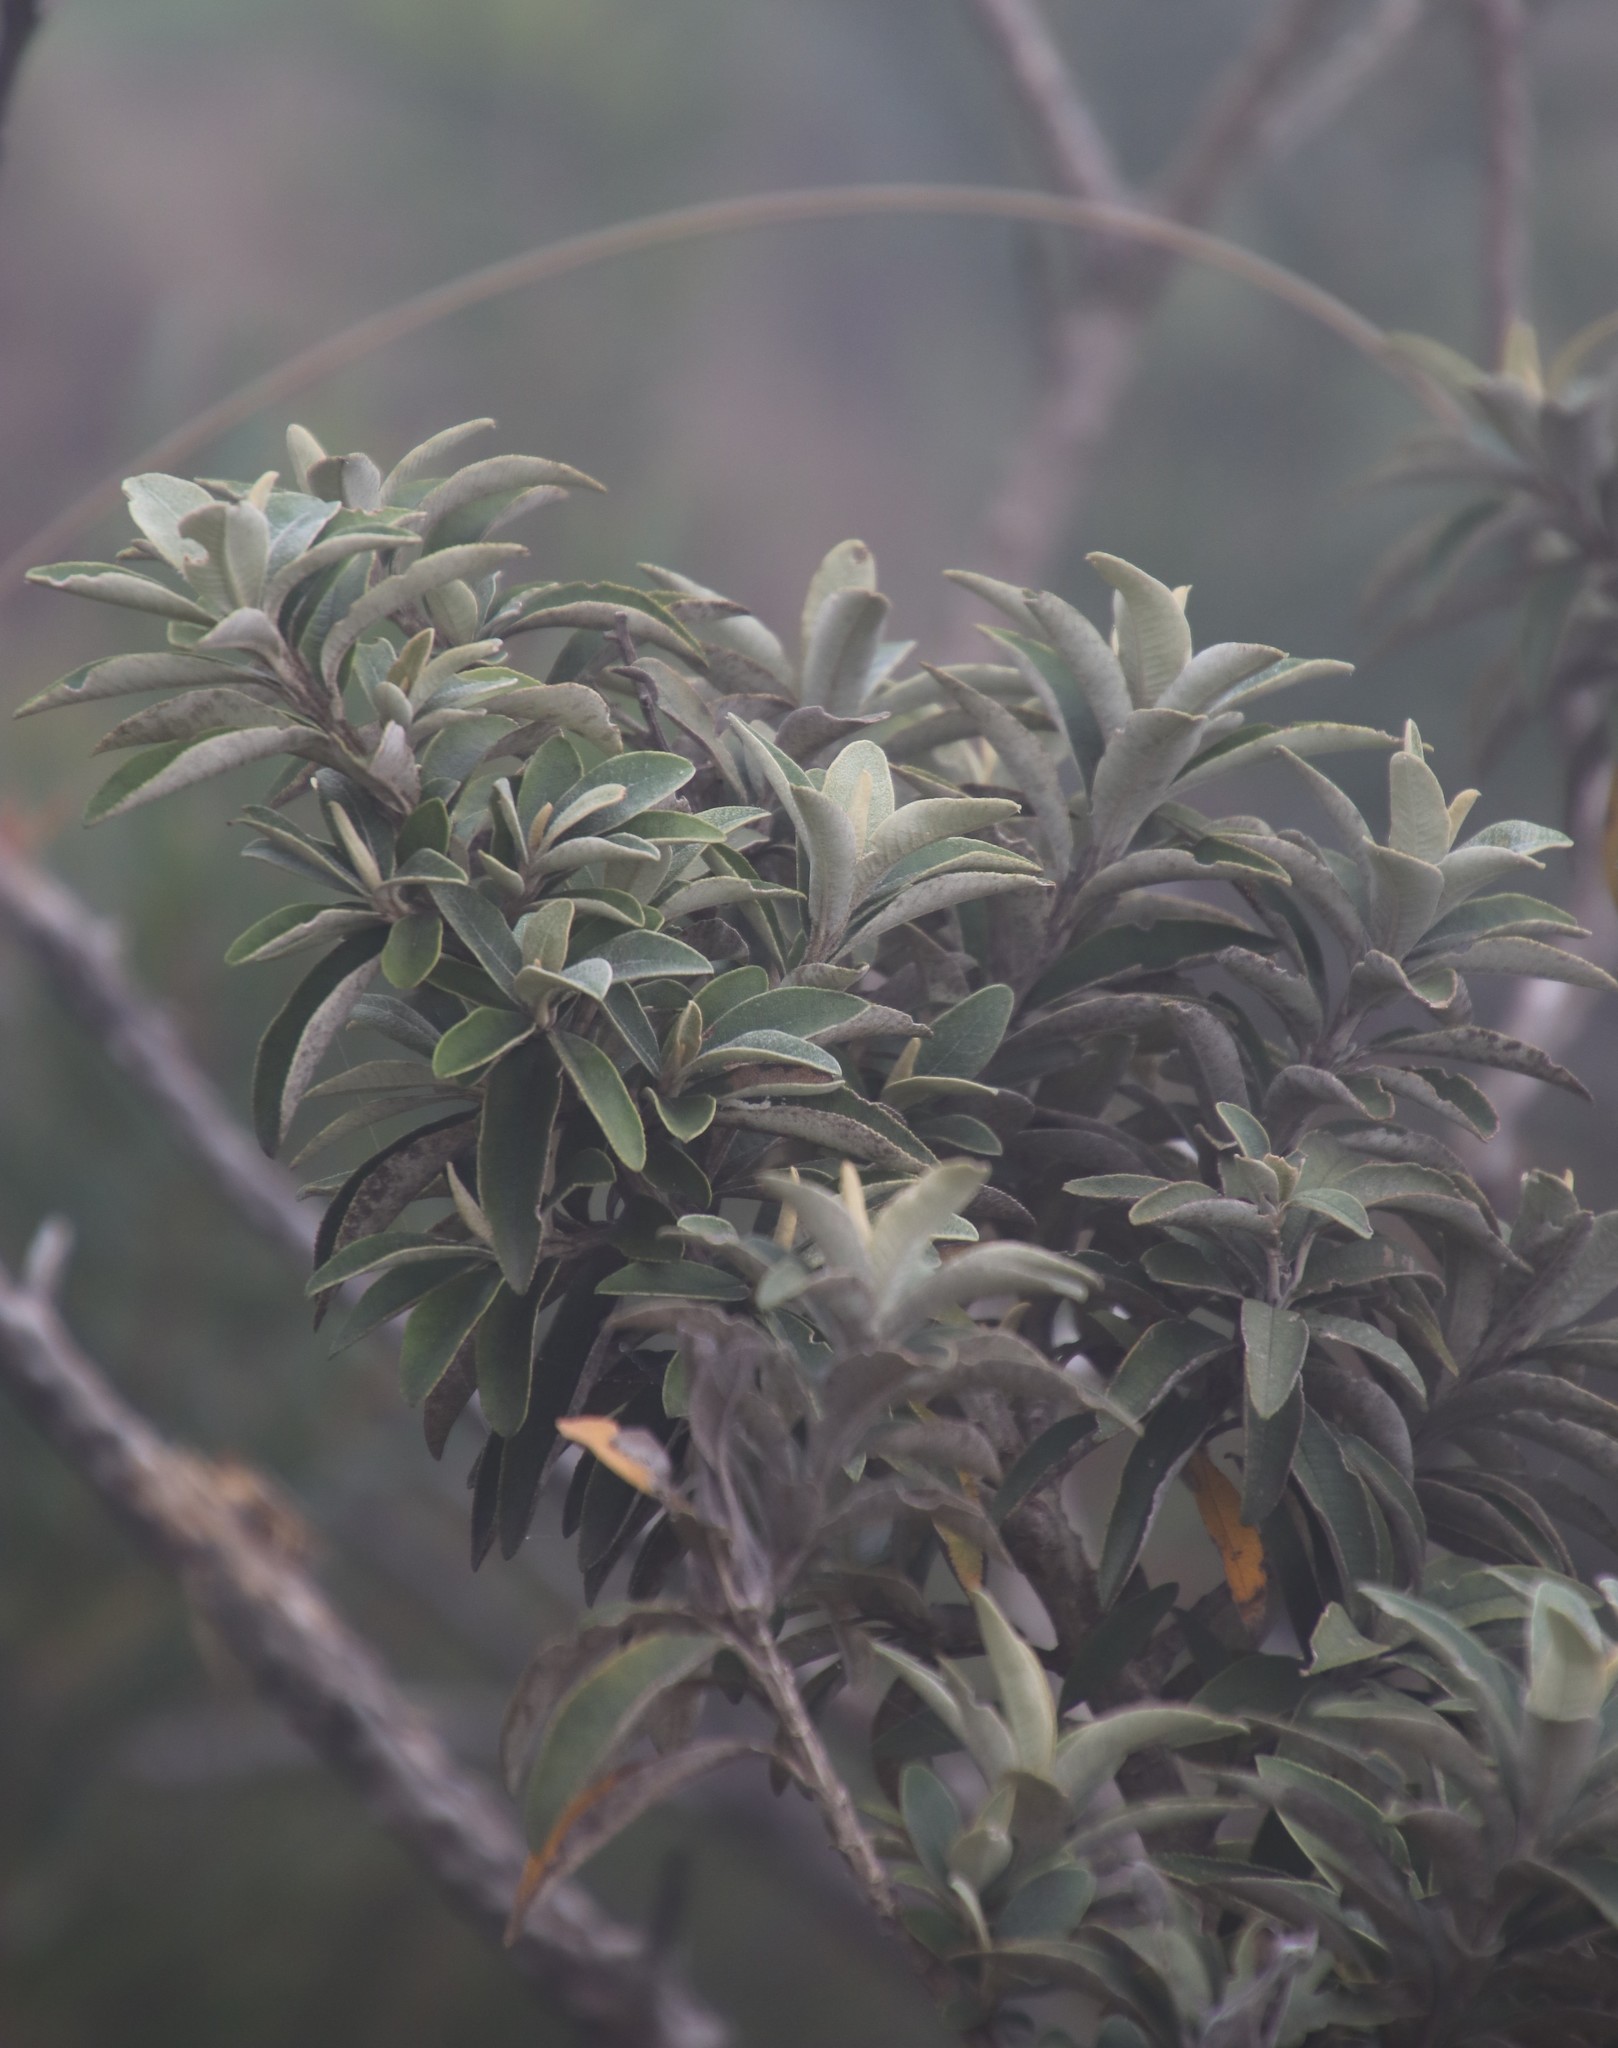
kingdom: Plantae
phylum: Tracheophyta
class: Magnoliopsida
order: Asterales
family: Asteraceae
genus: Tarchonanthus
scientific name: Tarchonanthus littoralis
